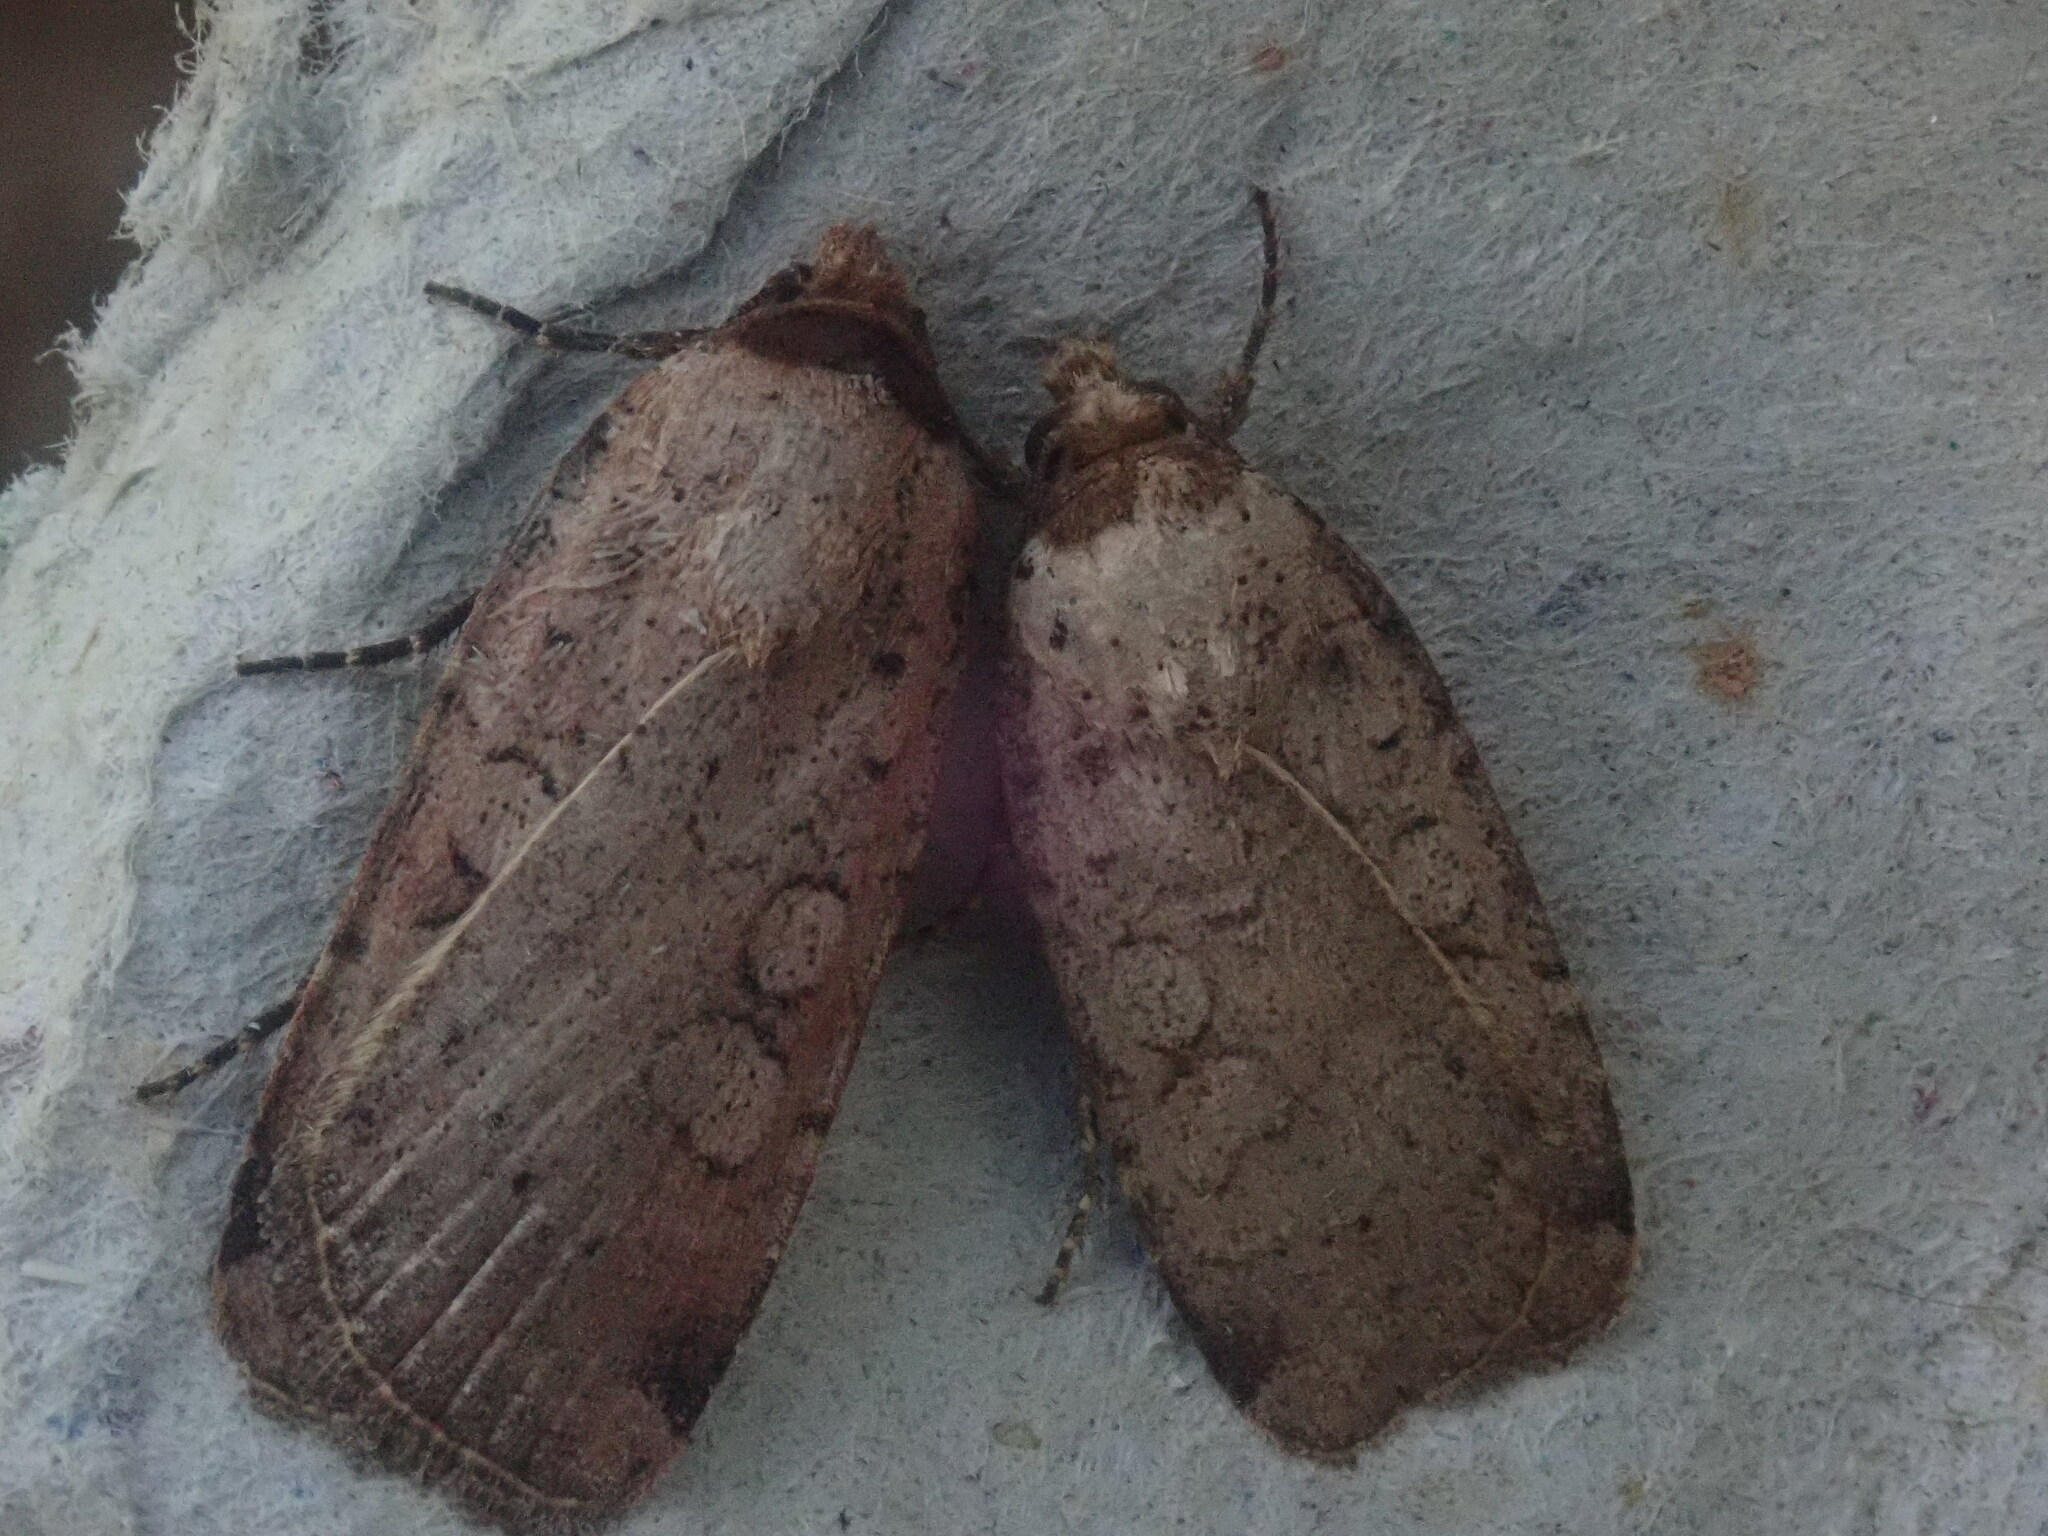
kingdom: Animalia
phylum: Arthropoda
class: Insecta
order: Lepidoptera
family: Noctuidae
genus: Protolampra
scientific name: Protolampra brunneicollis
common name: Brown-collared dart
